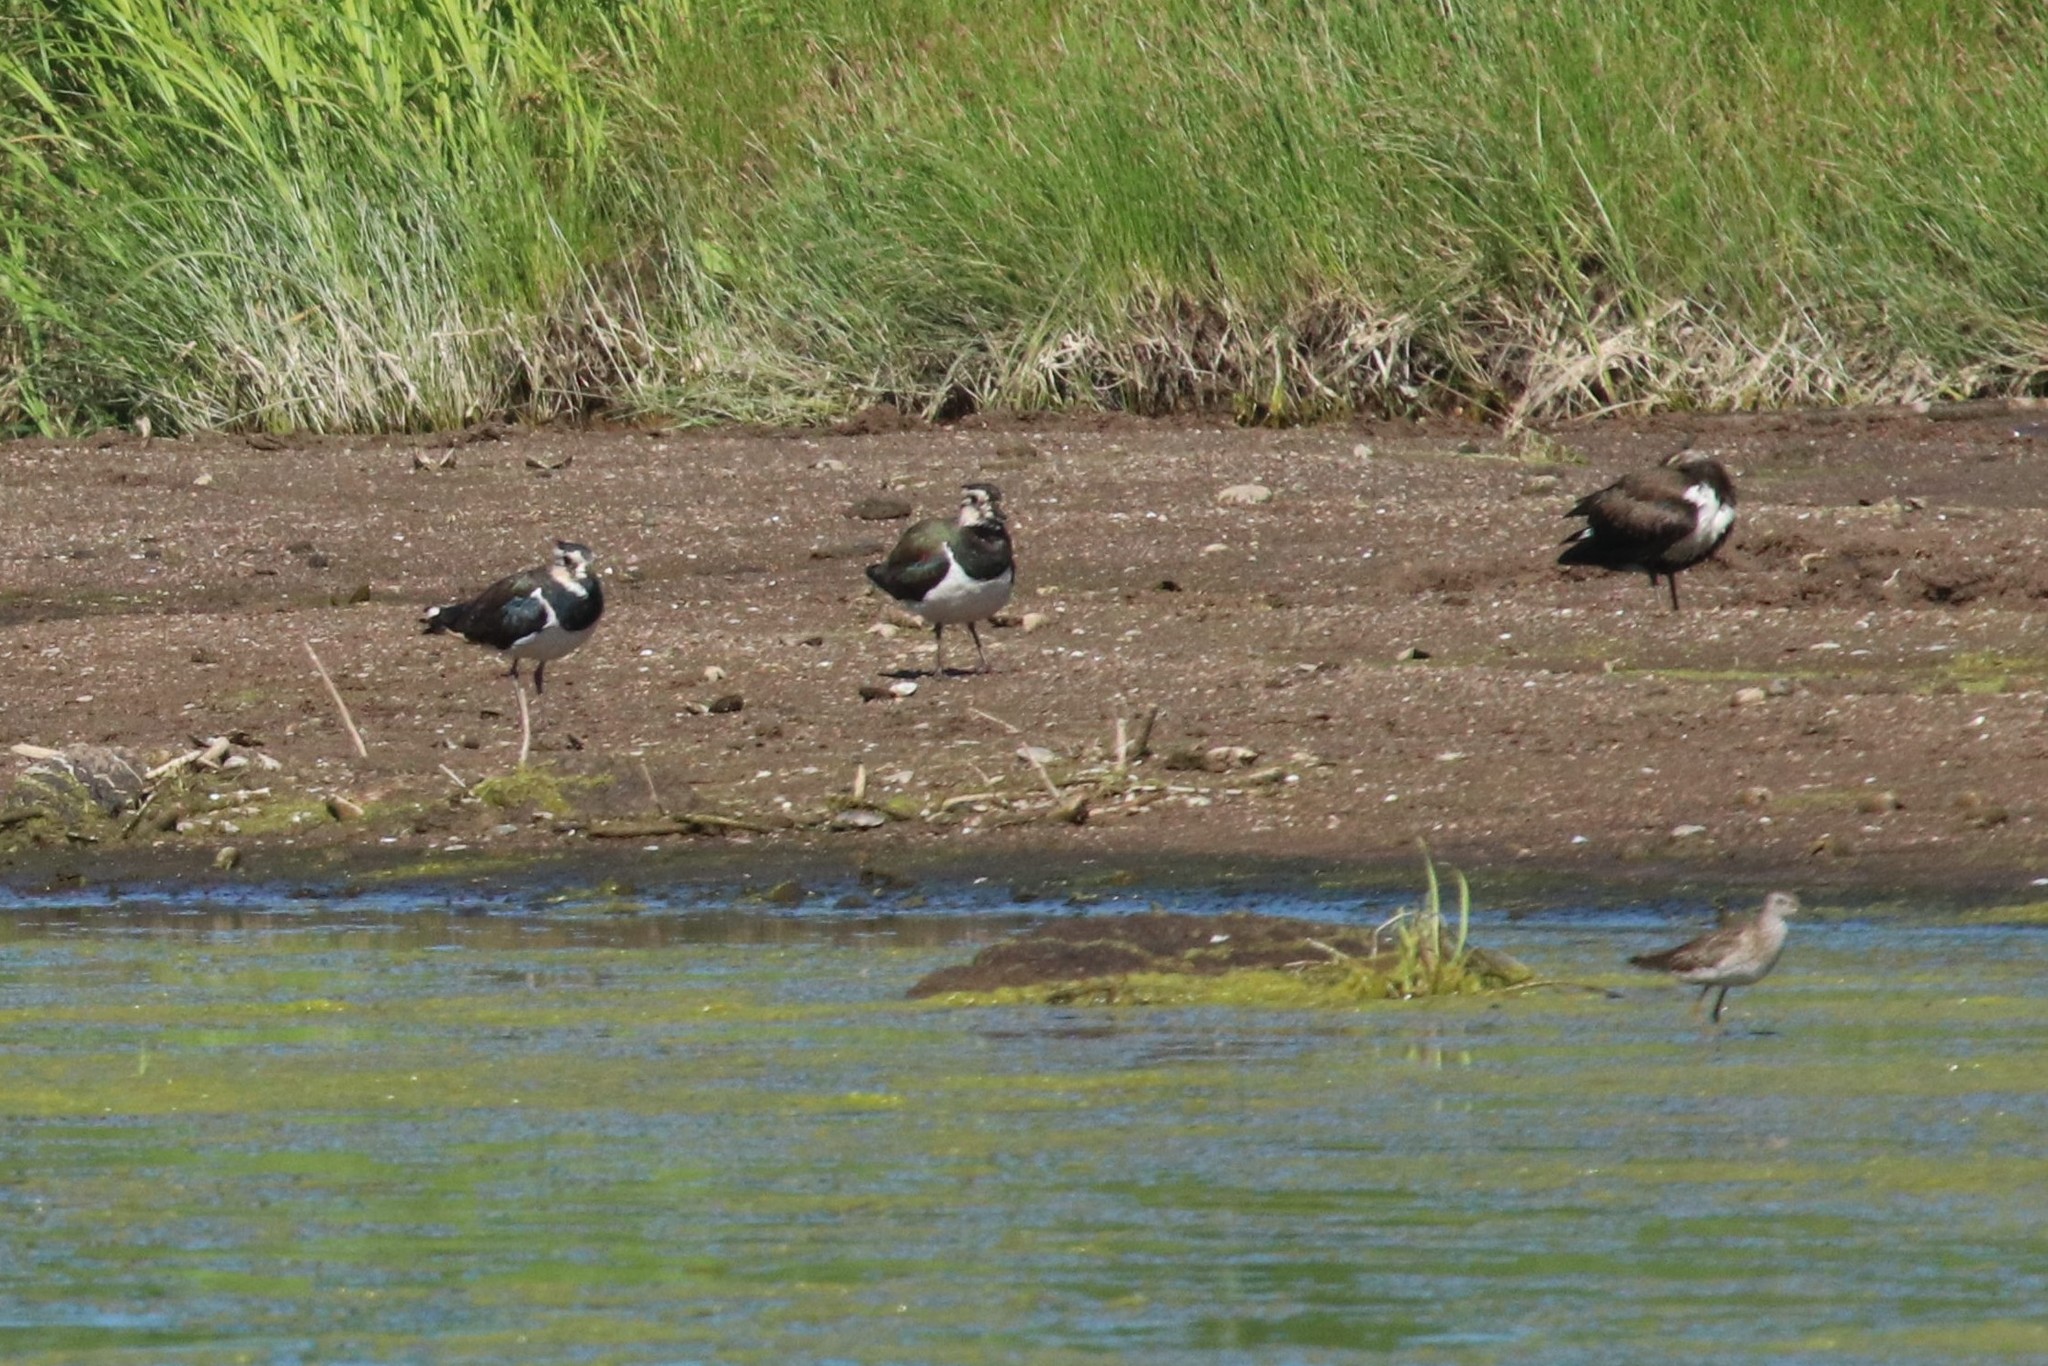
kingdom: Animalia
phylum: Chordata
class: Aves
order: Charadriiformes
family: Charadriidae
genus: Vanellus
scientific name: Vanellus vanellus
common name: Northern lapwing
